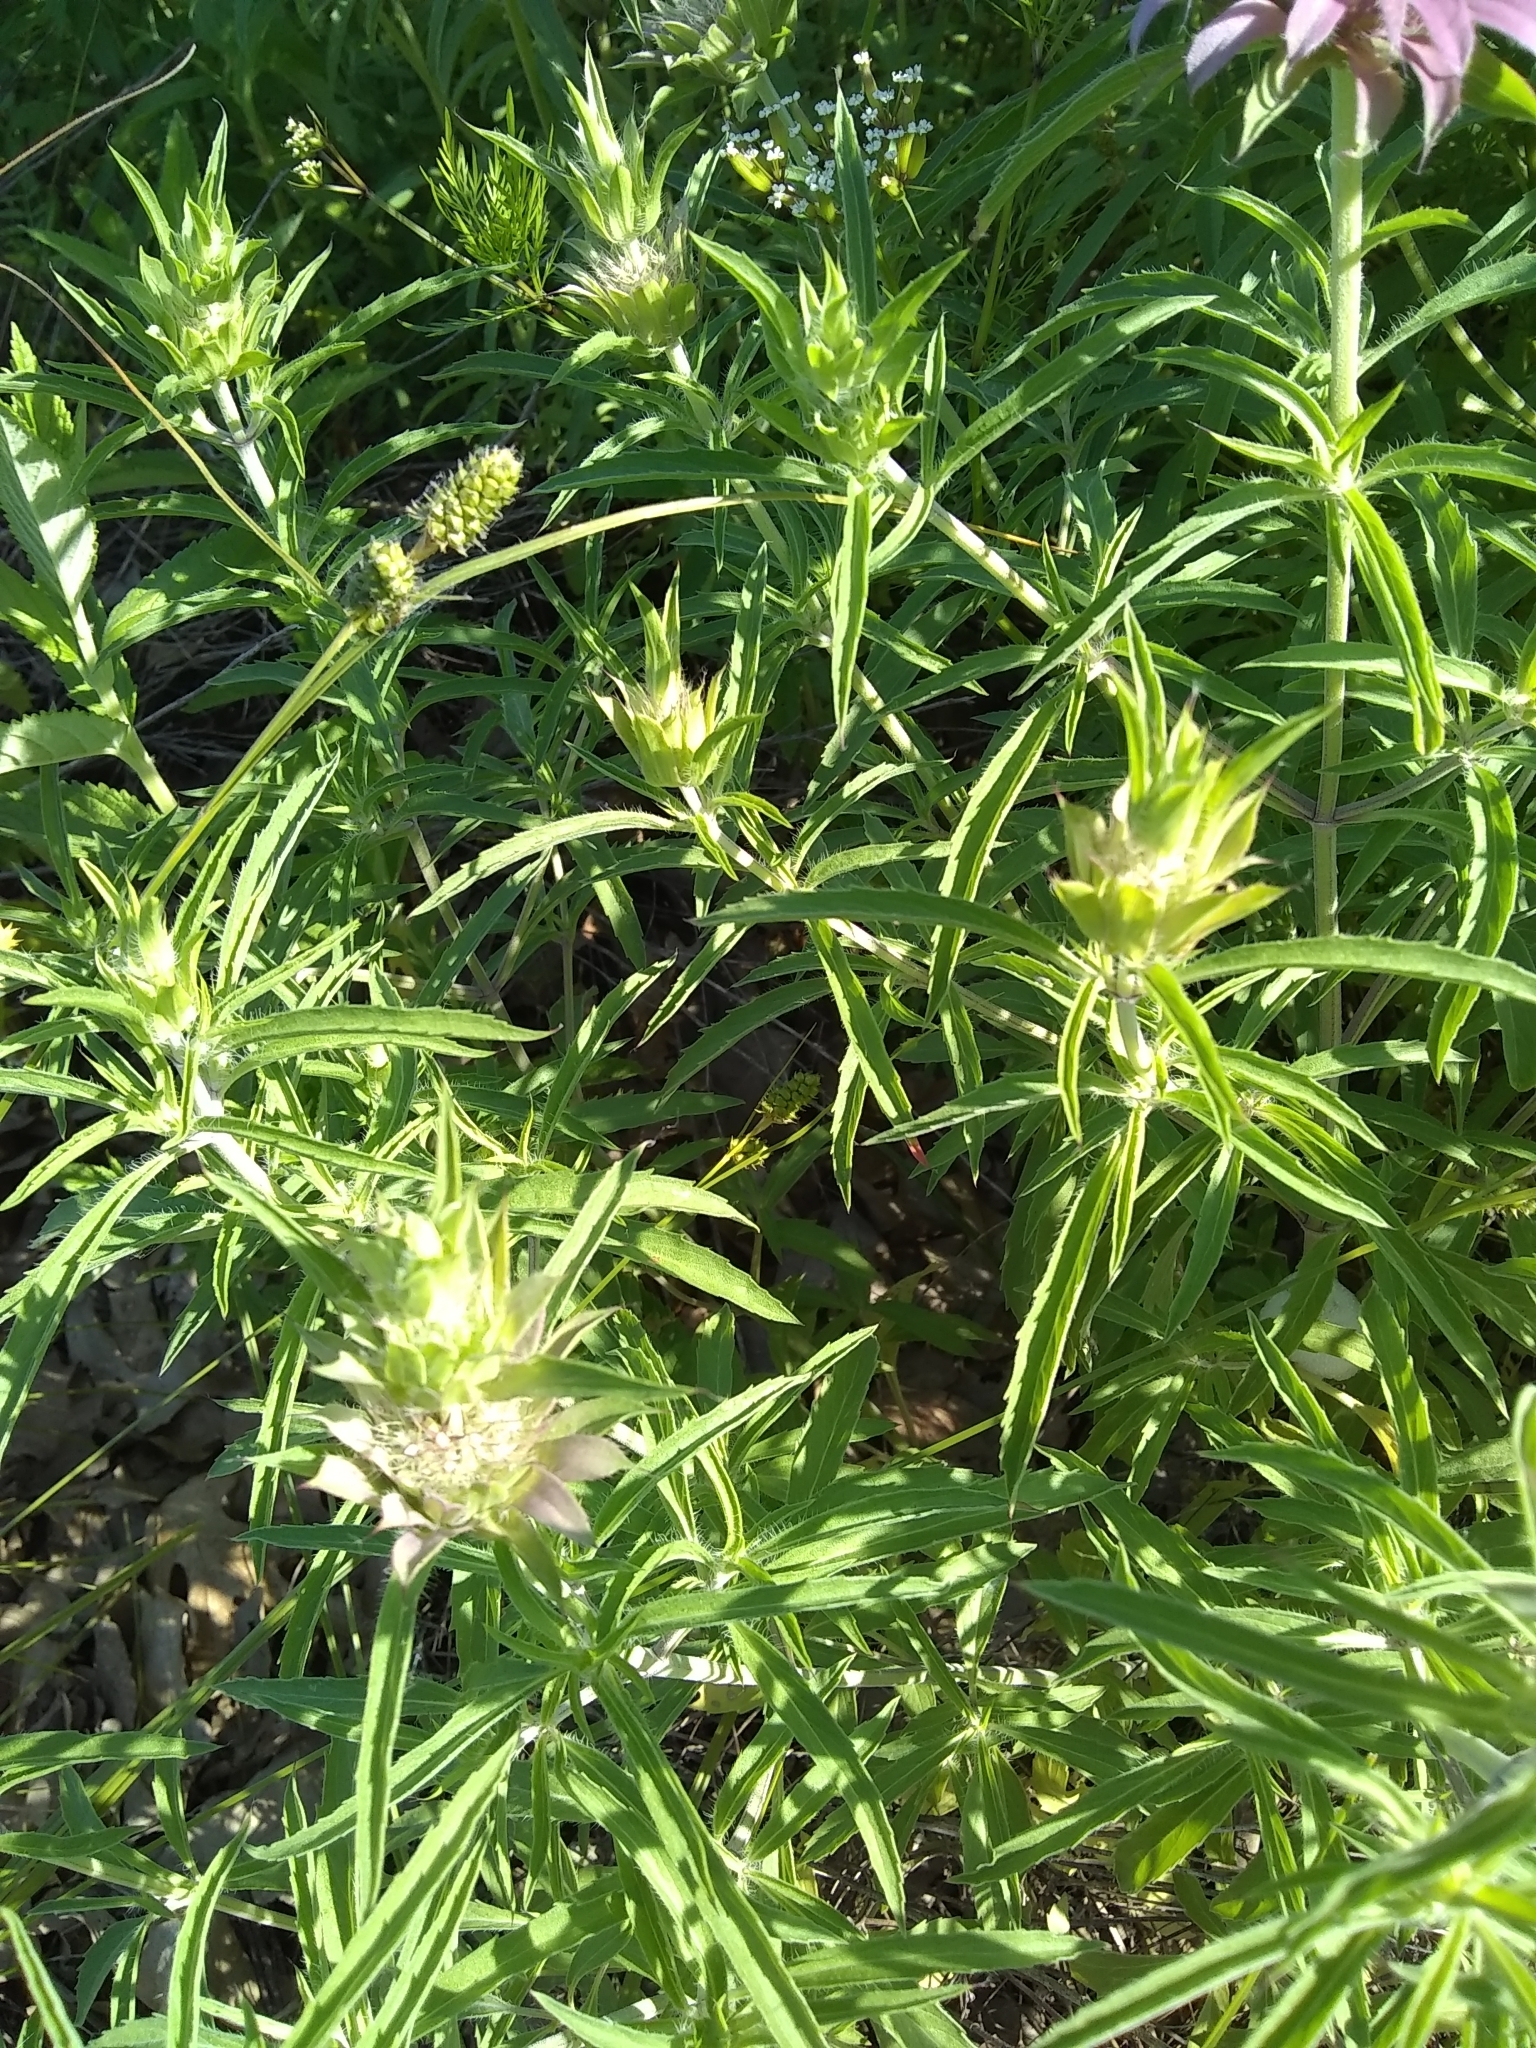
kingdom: Plantae
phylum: Tracheophyta
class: Magnoliopsida
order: Lamiales
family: Lamiaceae
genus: Monarda
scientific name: Monarda citriodora
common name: Lemon beebalm
